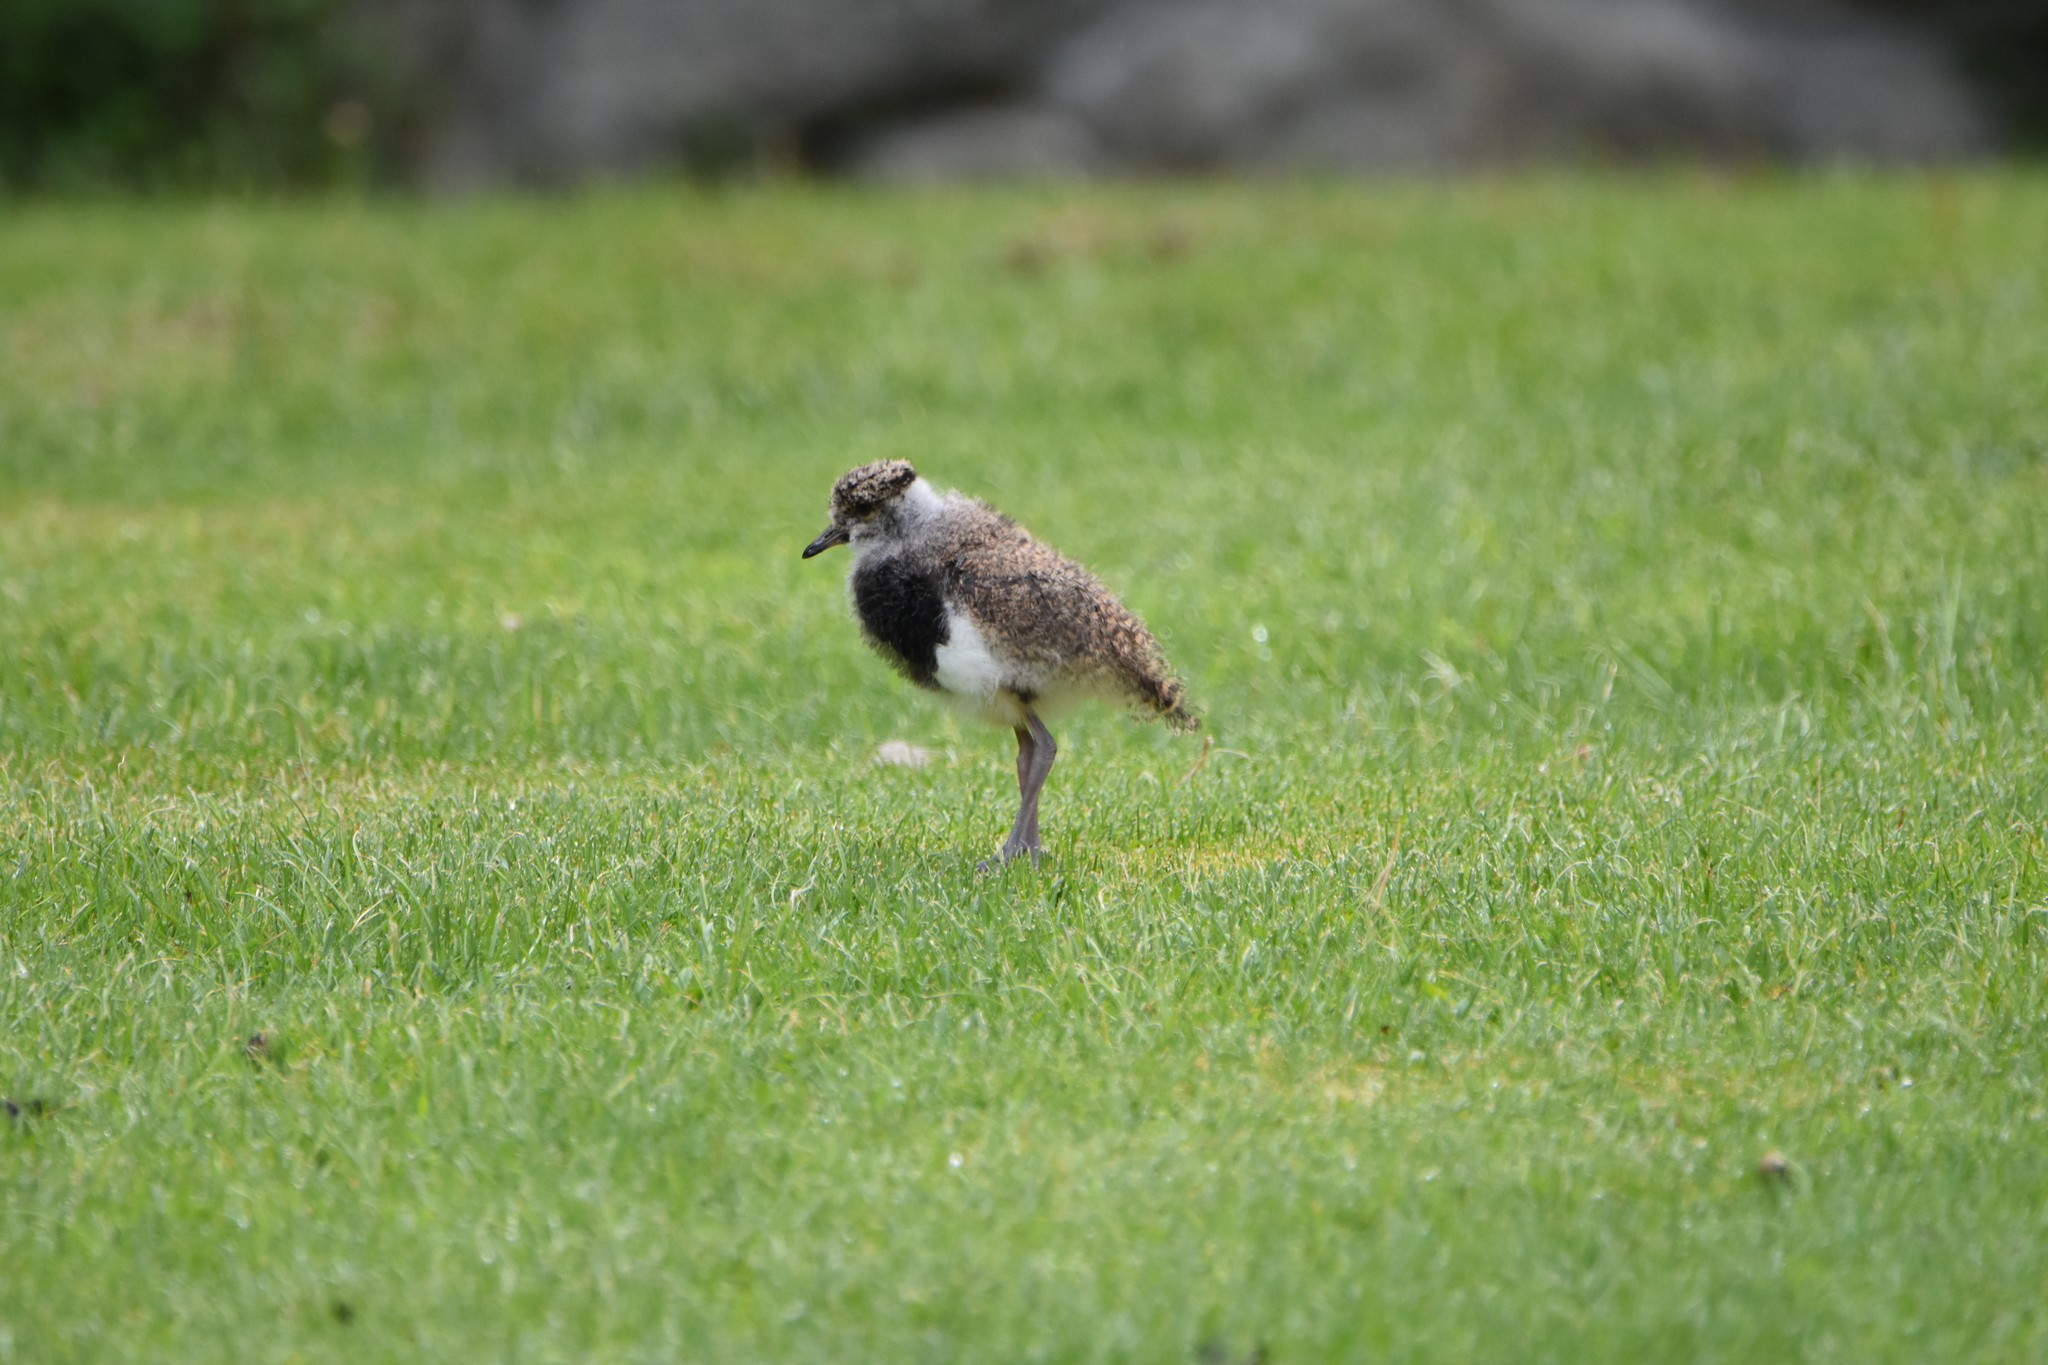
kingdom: Animalia
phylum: Chordata
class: Aves
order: Charadriiformes
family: Charadriidae
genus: Vanellus
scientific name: Vanellus chilensis
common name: Southern lapwing
